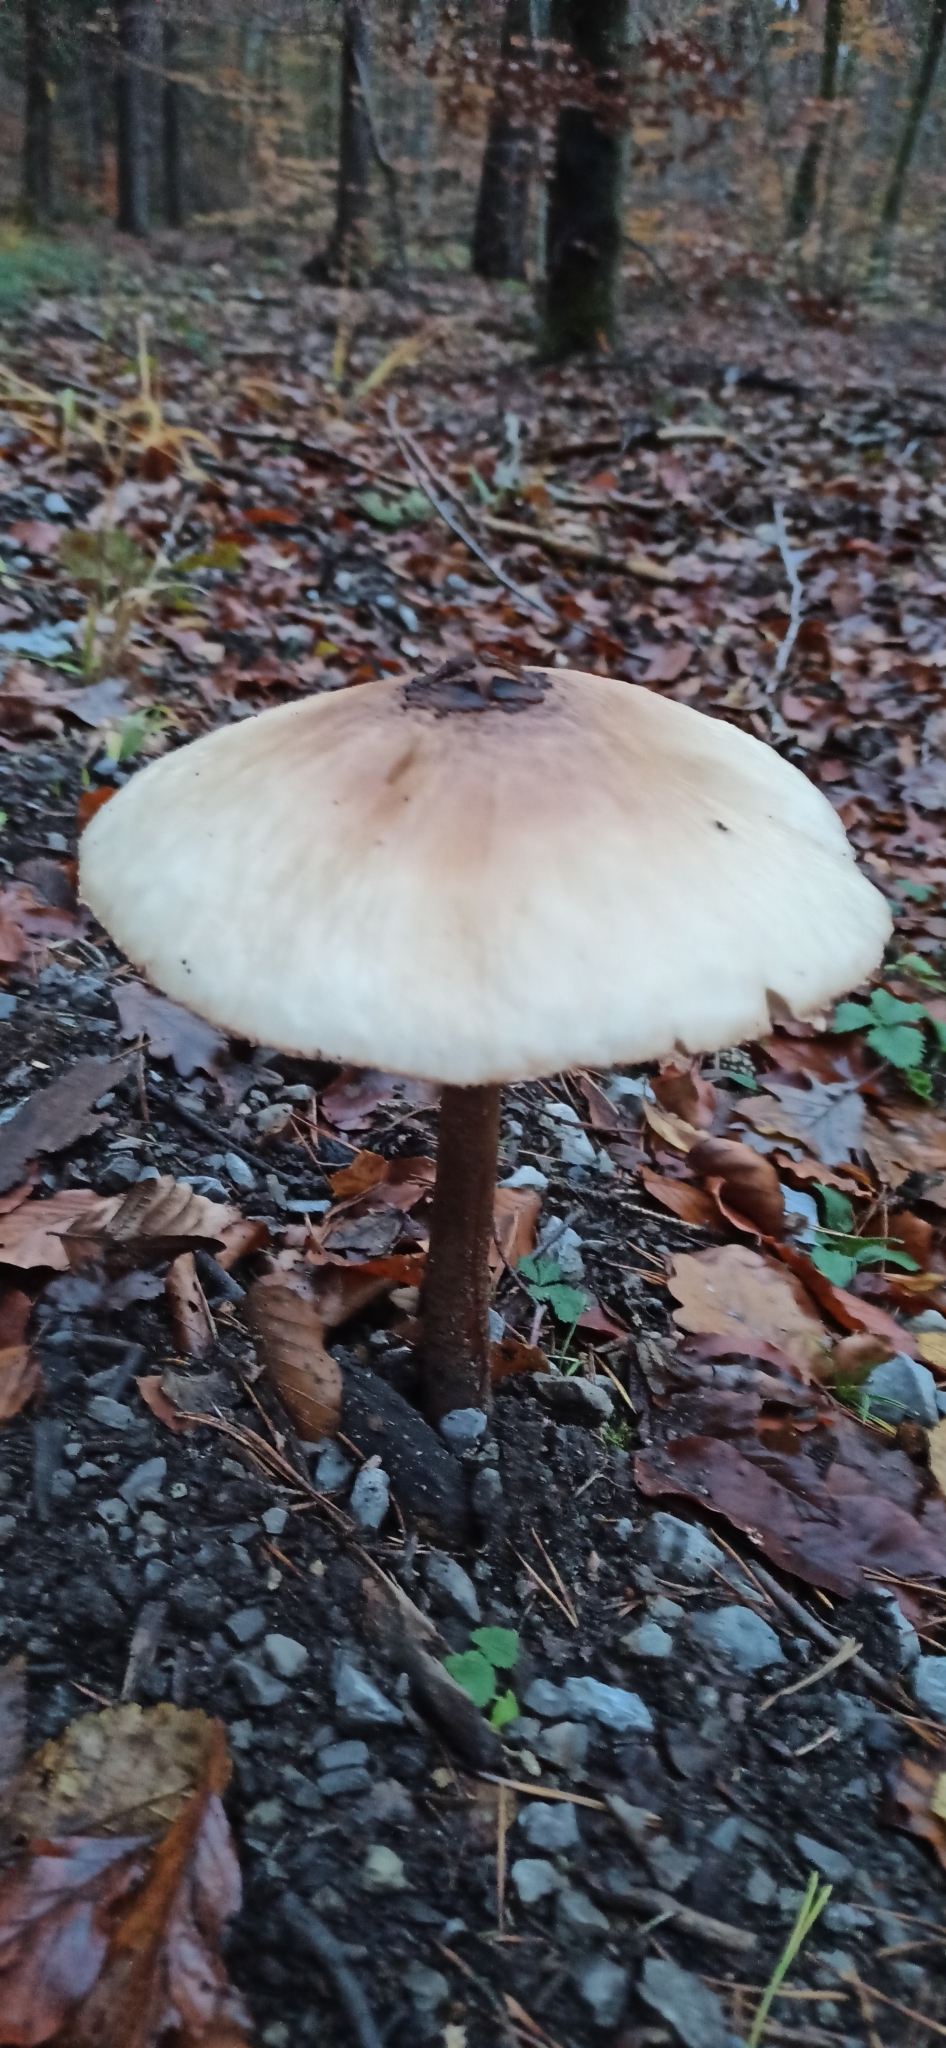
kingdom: Fungi
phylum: Basidiomycota
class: Agaricomycetes
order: Agaricales
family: Agaricaceae
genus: Macrolepiota
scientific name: Macrolepiota procera
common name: Parasol
